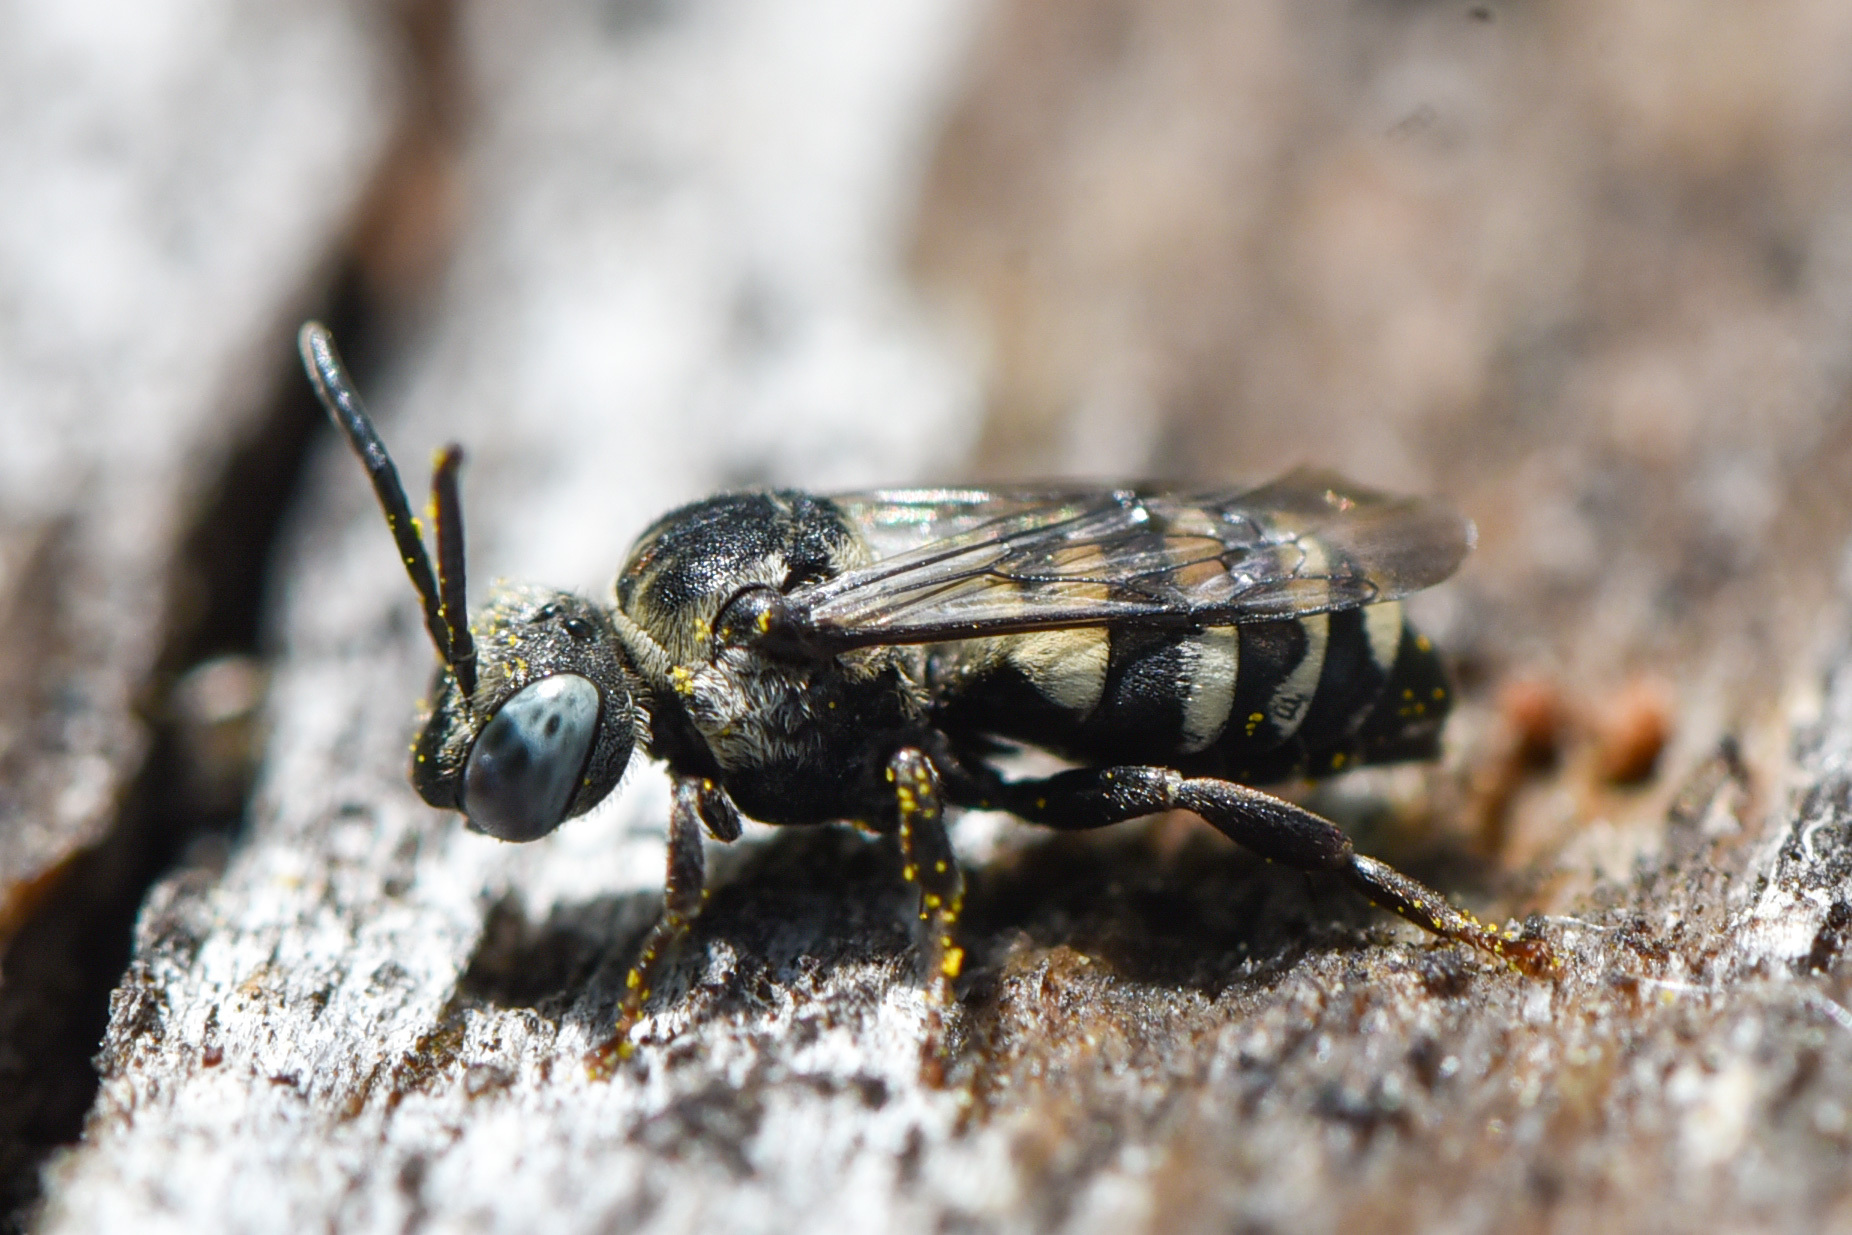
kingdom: Animalia
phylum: Arthropoda
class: Insecta
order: Hymenoptera
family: Apidae
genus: Epeolus
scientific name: Epeolus americanus
